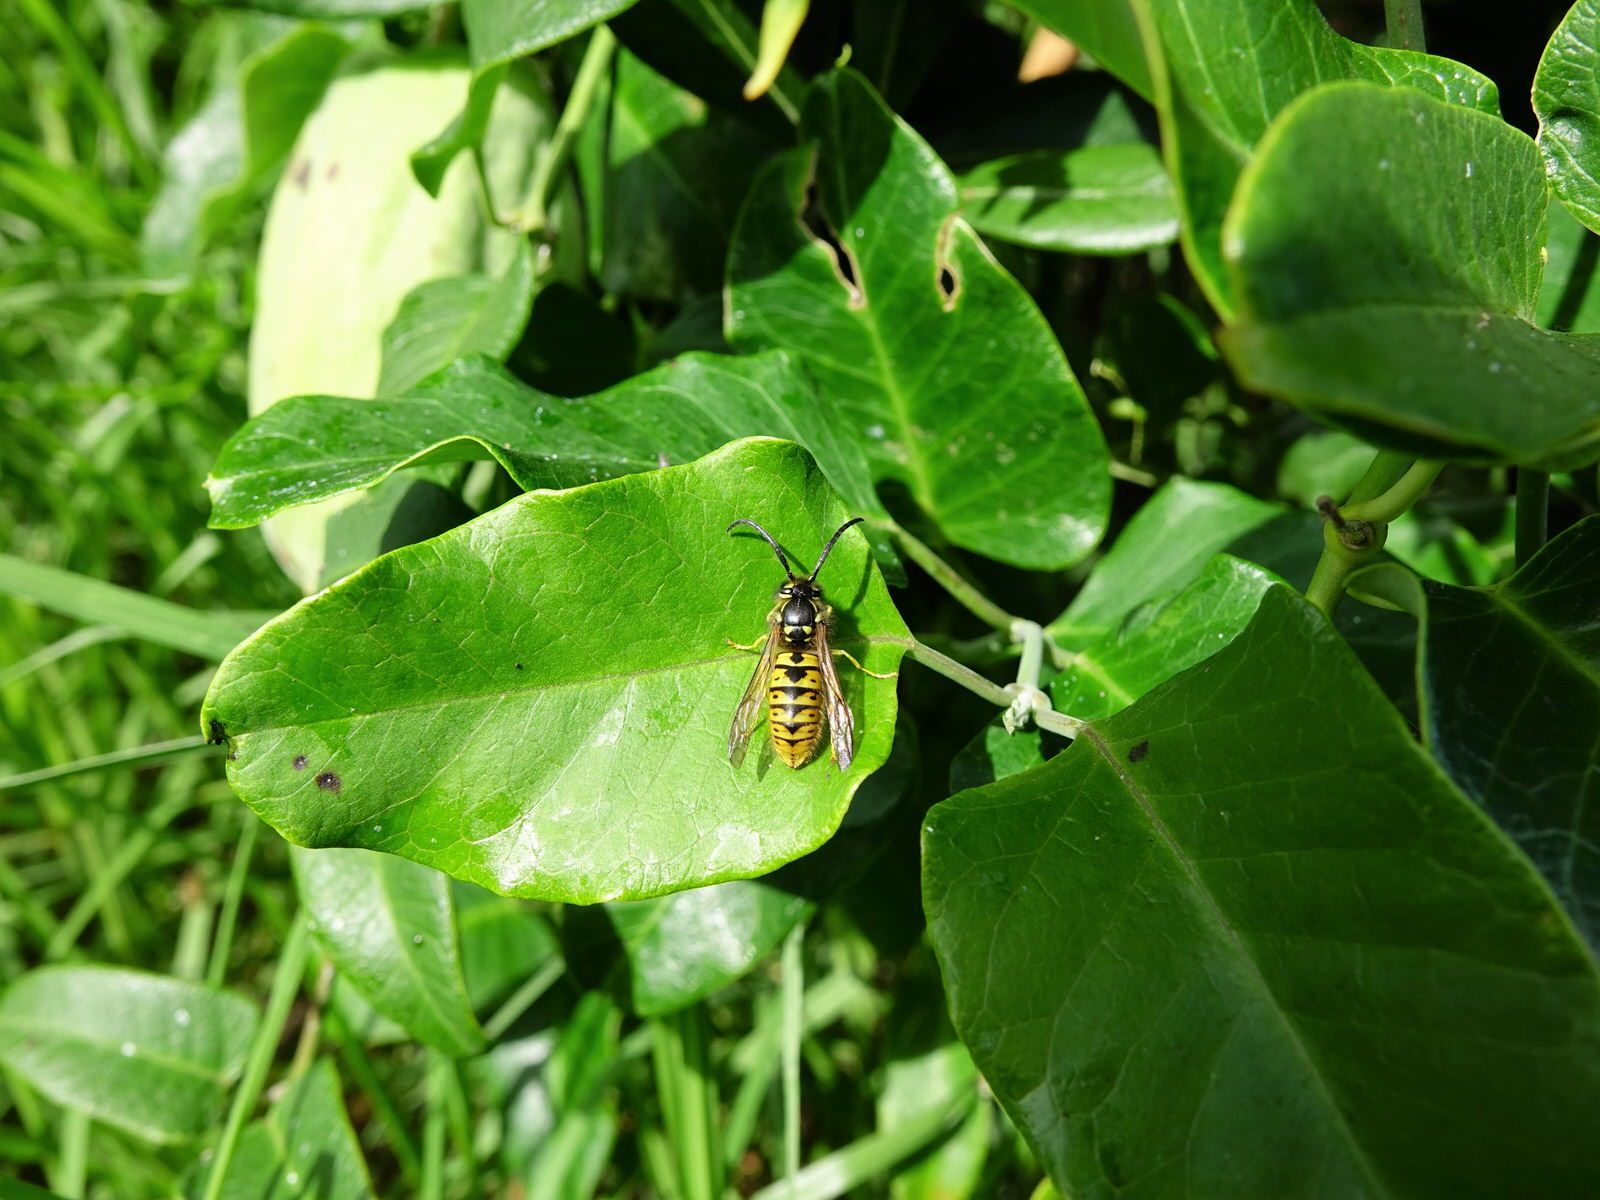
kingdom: Animalia
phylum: Arthropoda
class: Insecta
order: Hymenoptera
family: Vespidae
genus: Vespula
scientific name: Vespula germanica
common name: German wasp
